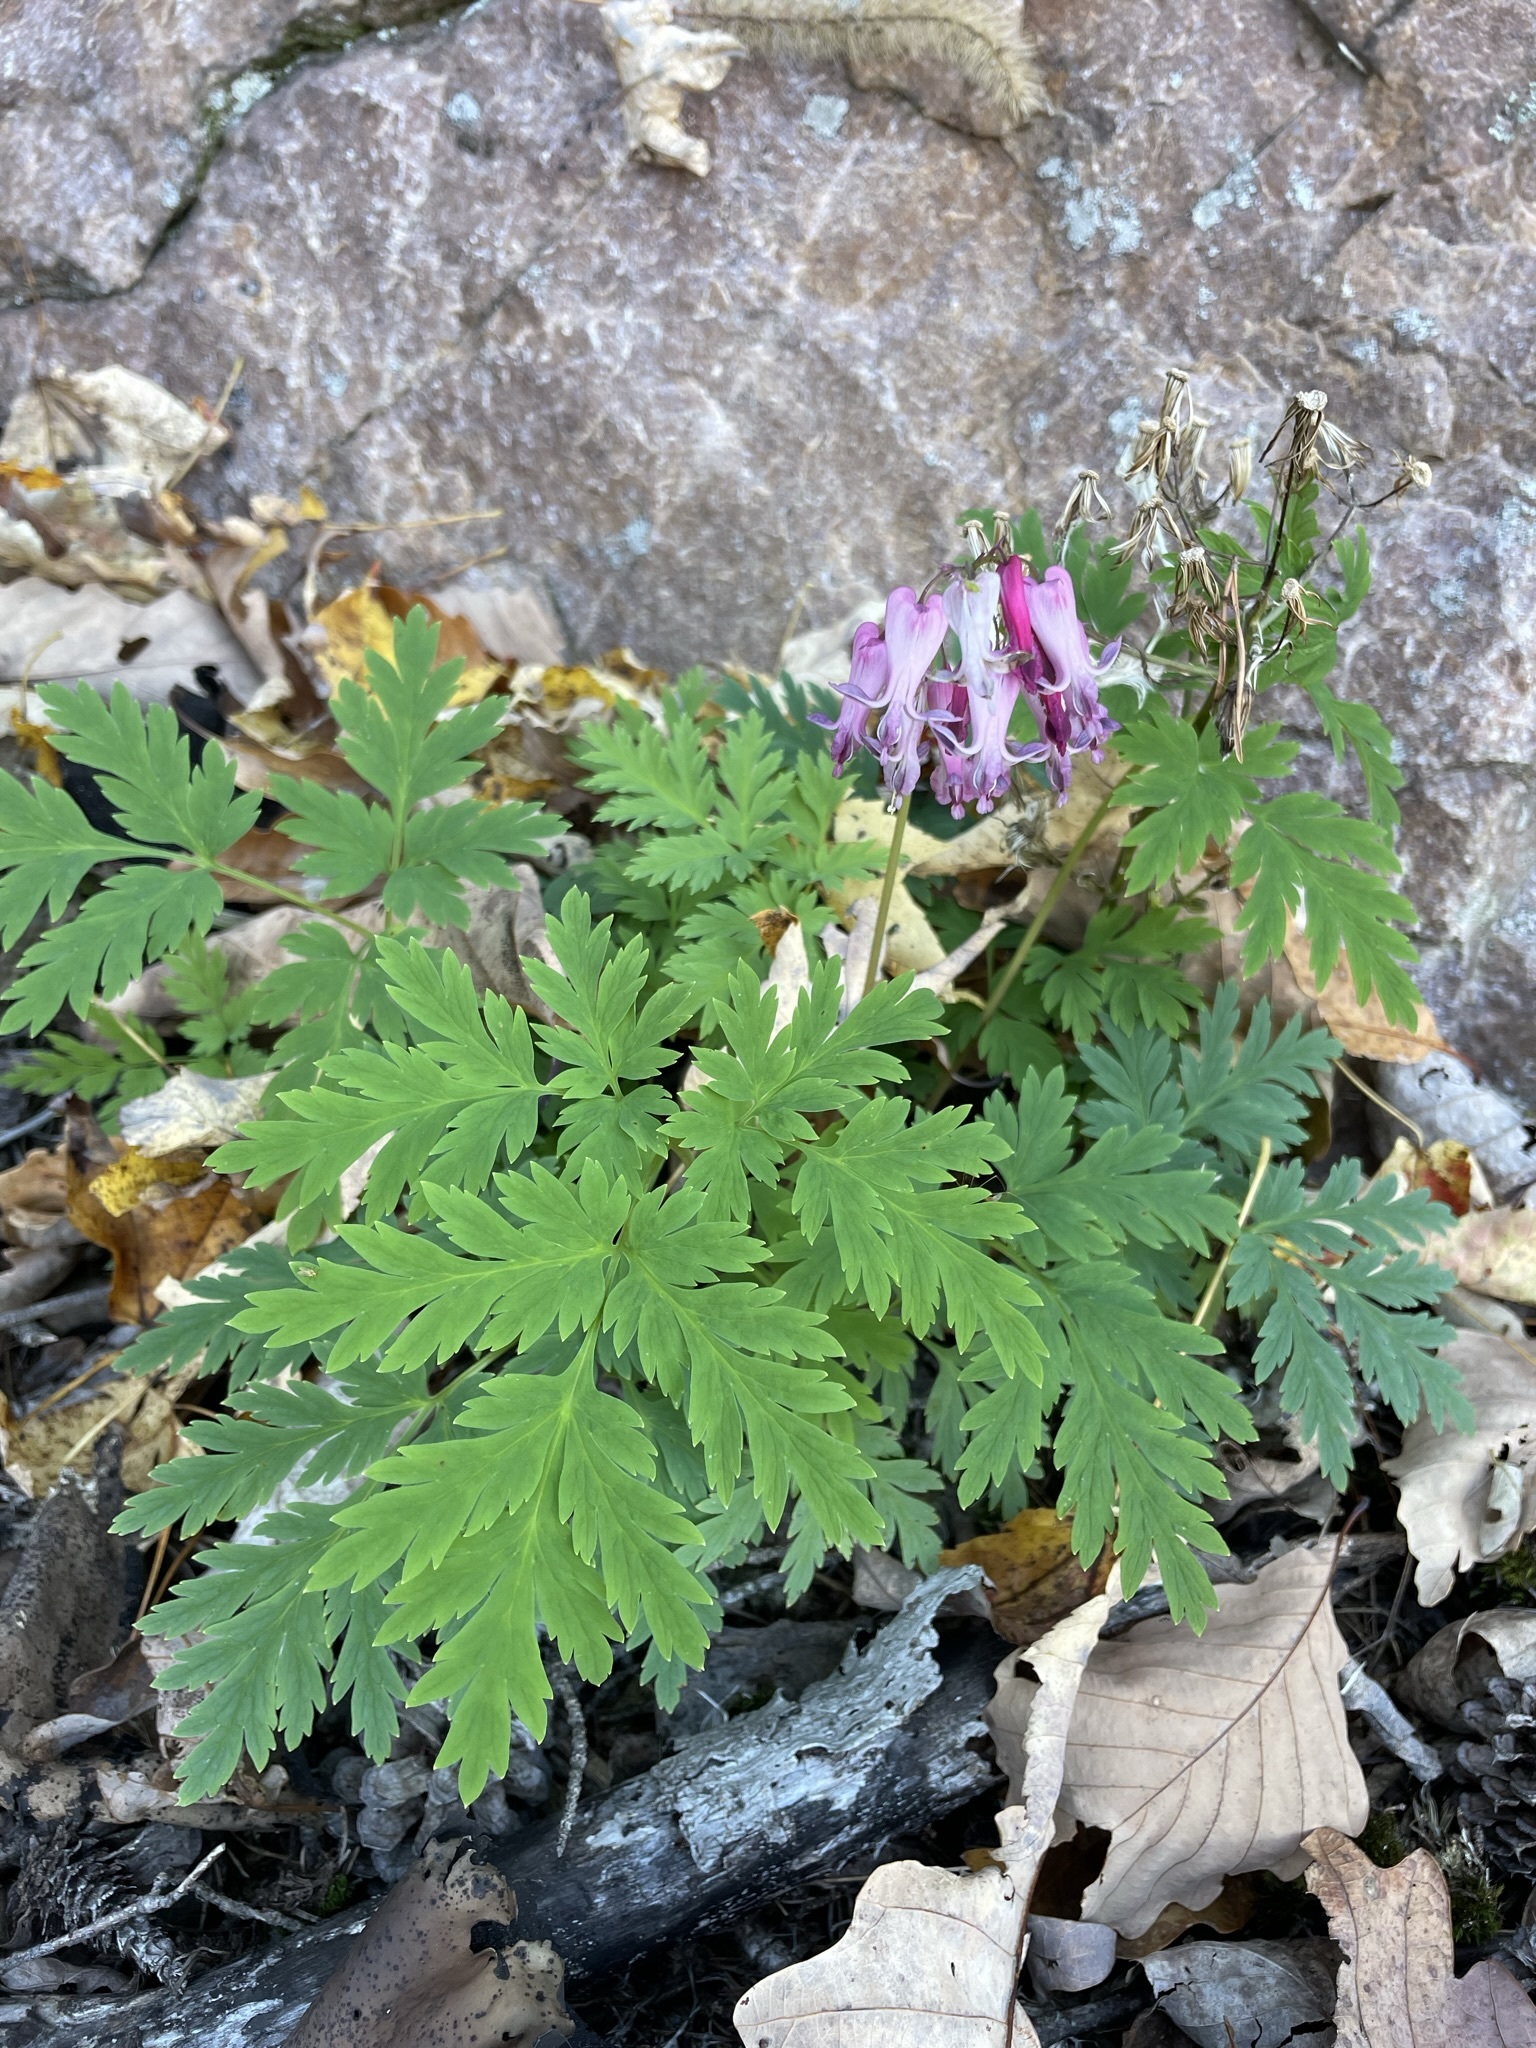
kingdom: Plantae
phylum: Tracheophyta
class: Magnoliopsida
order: Ranunculales
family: Papaveraceae
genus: Dicentra
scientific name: Dicentra eximia
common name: Turkey-corn
